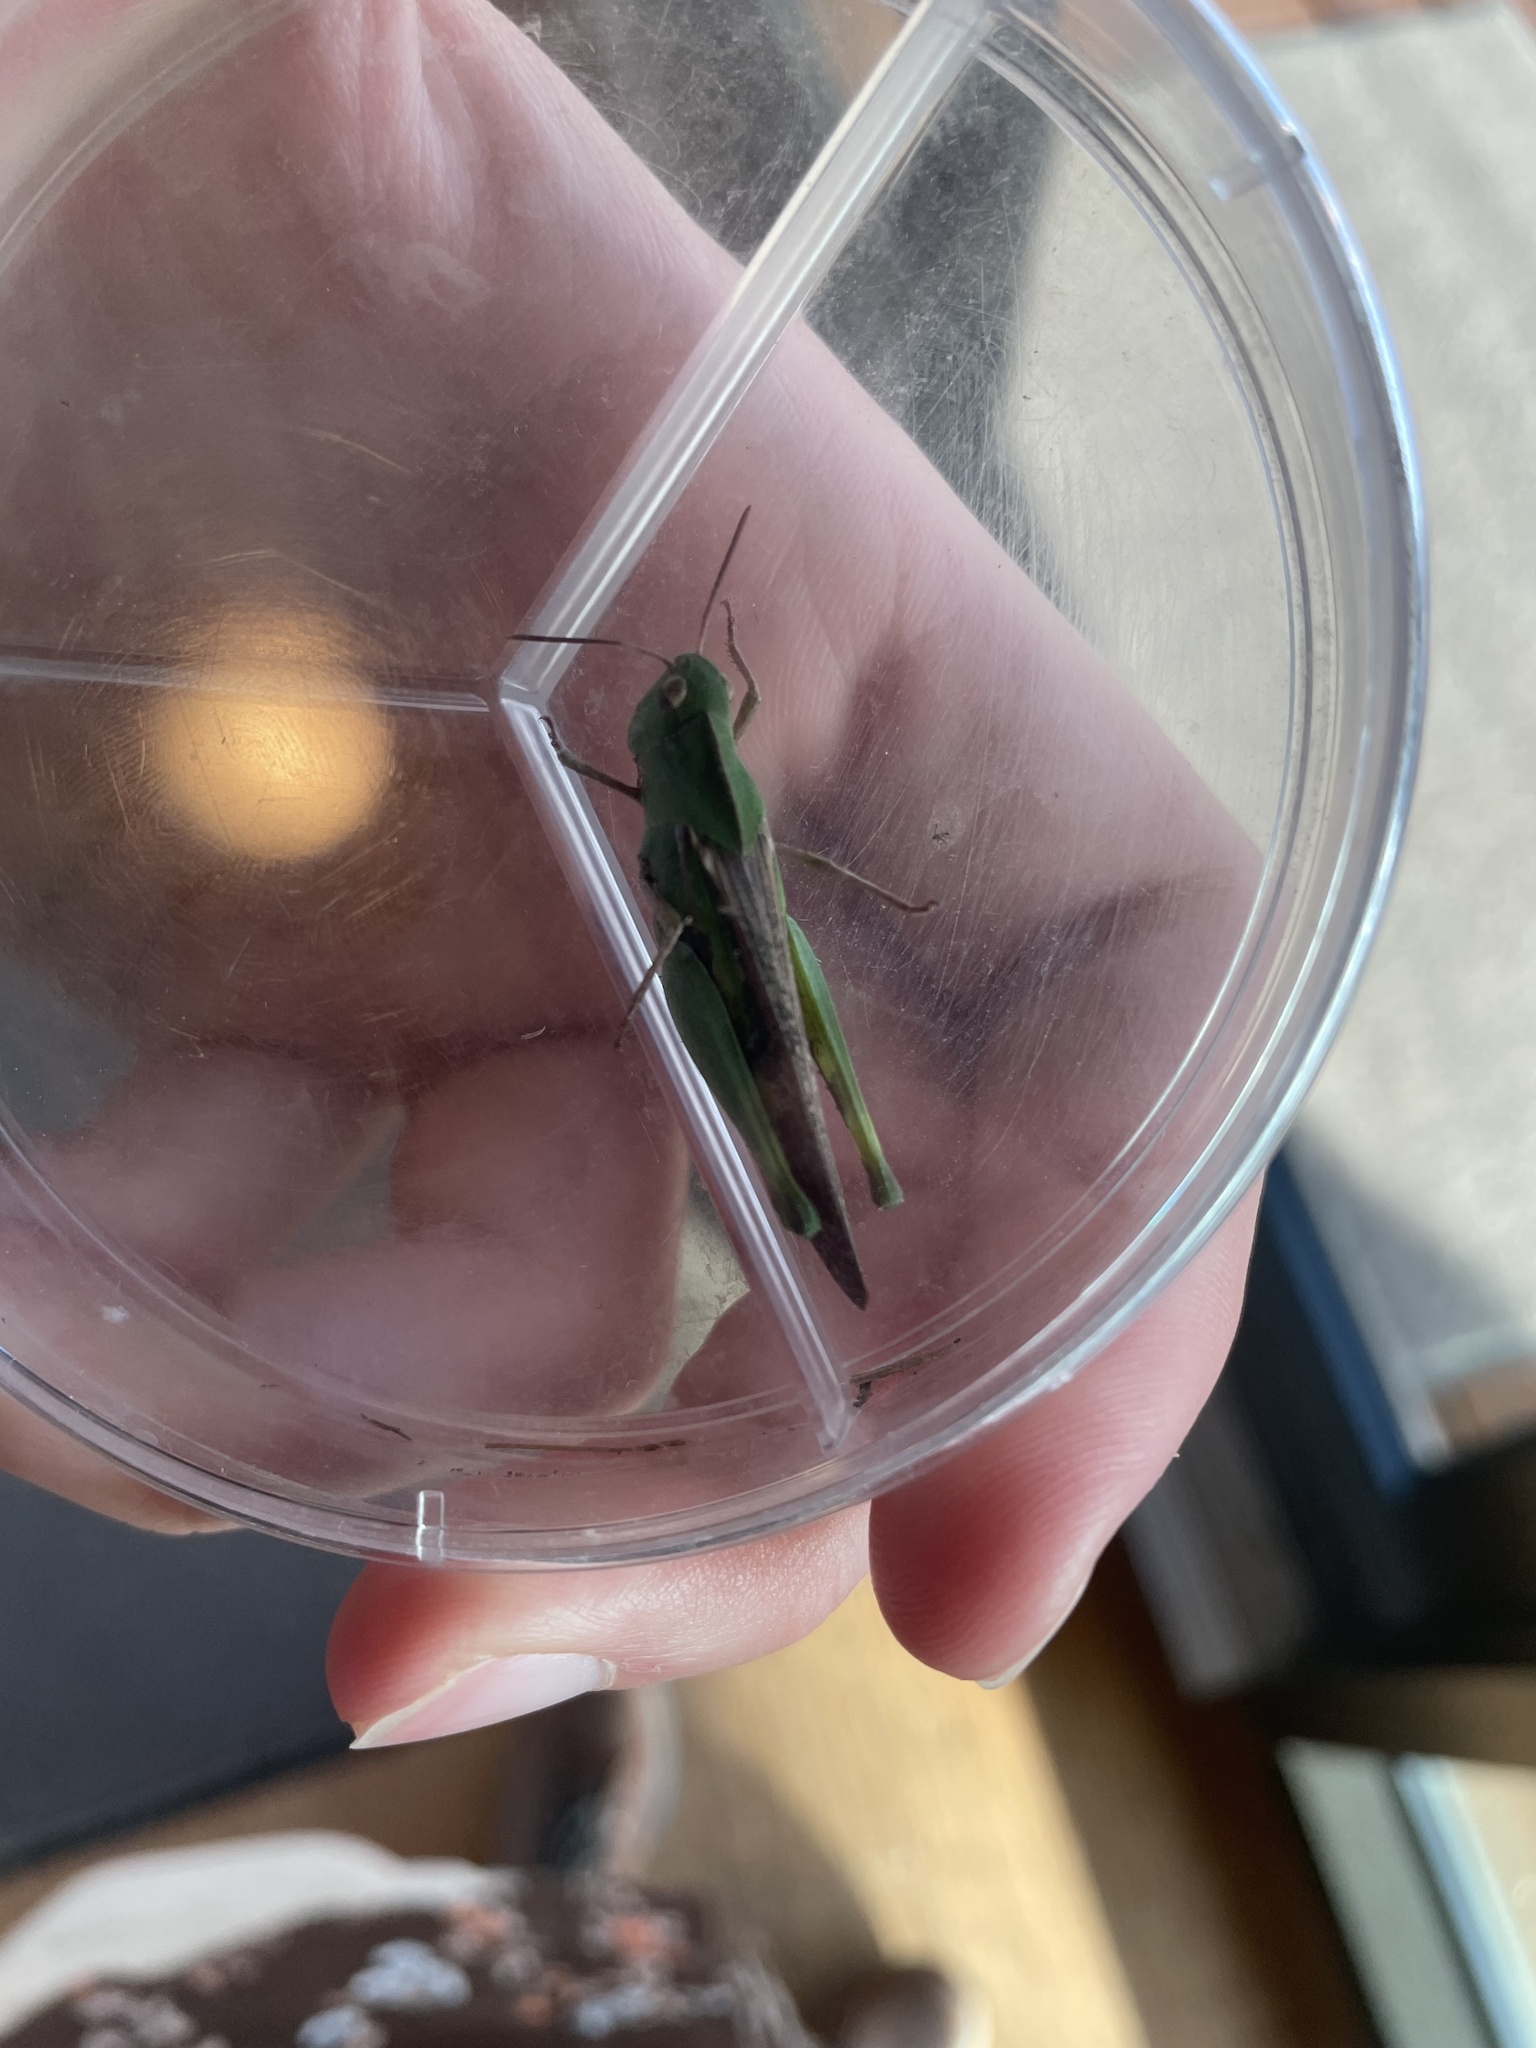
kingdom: Animalia
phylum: Arthropoda
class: Insecta
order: Orthoptera
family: Acrididae
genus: Chortophaga
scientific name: Chortophaga viridifasciata
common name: Green-striped grasshopper
